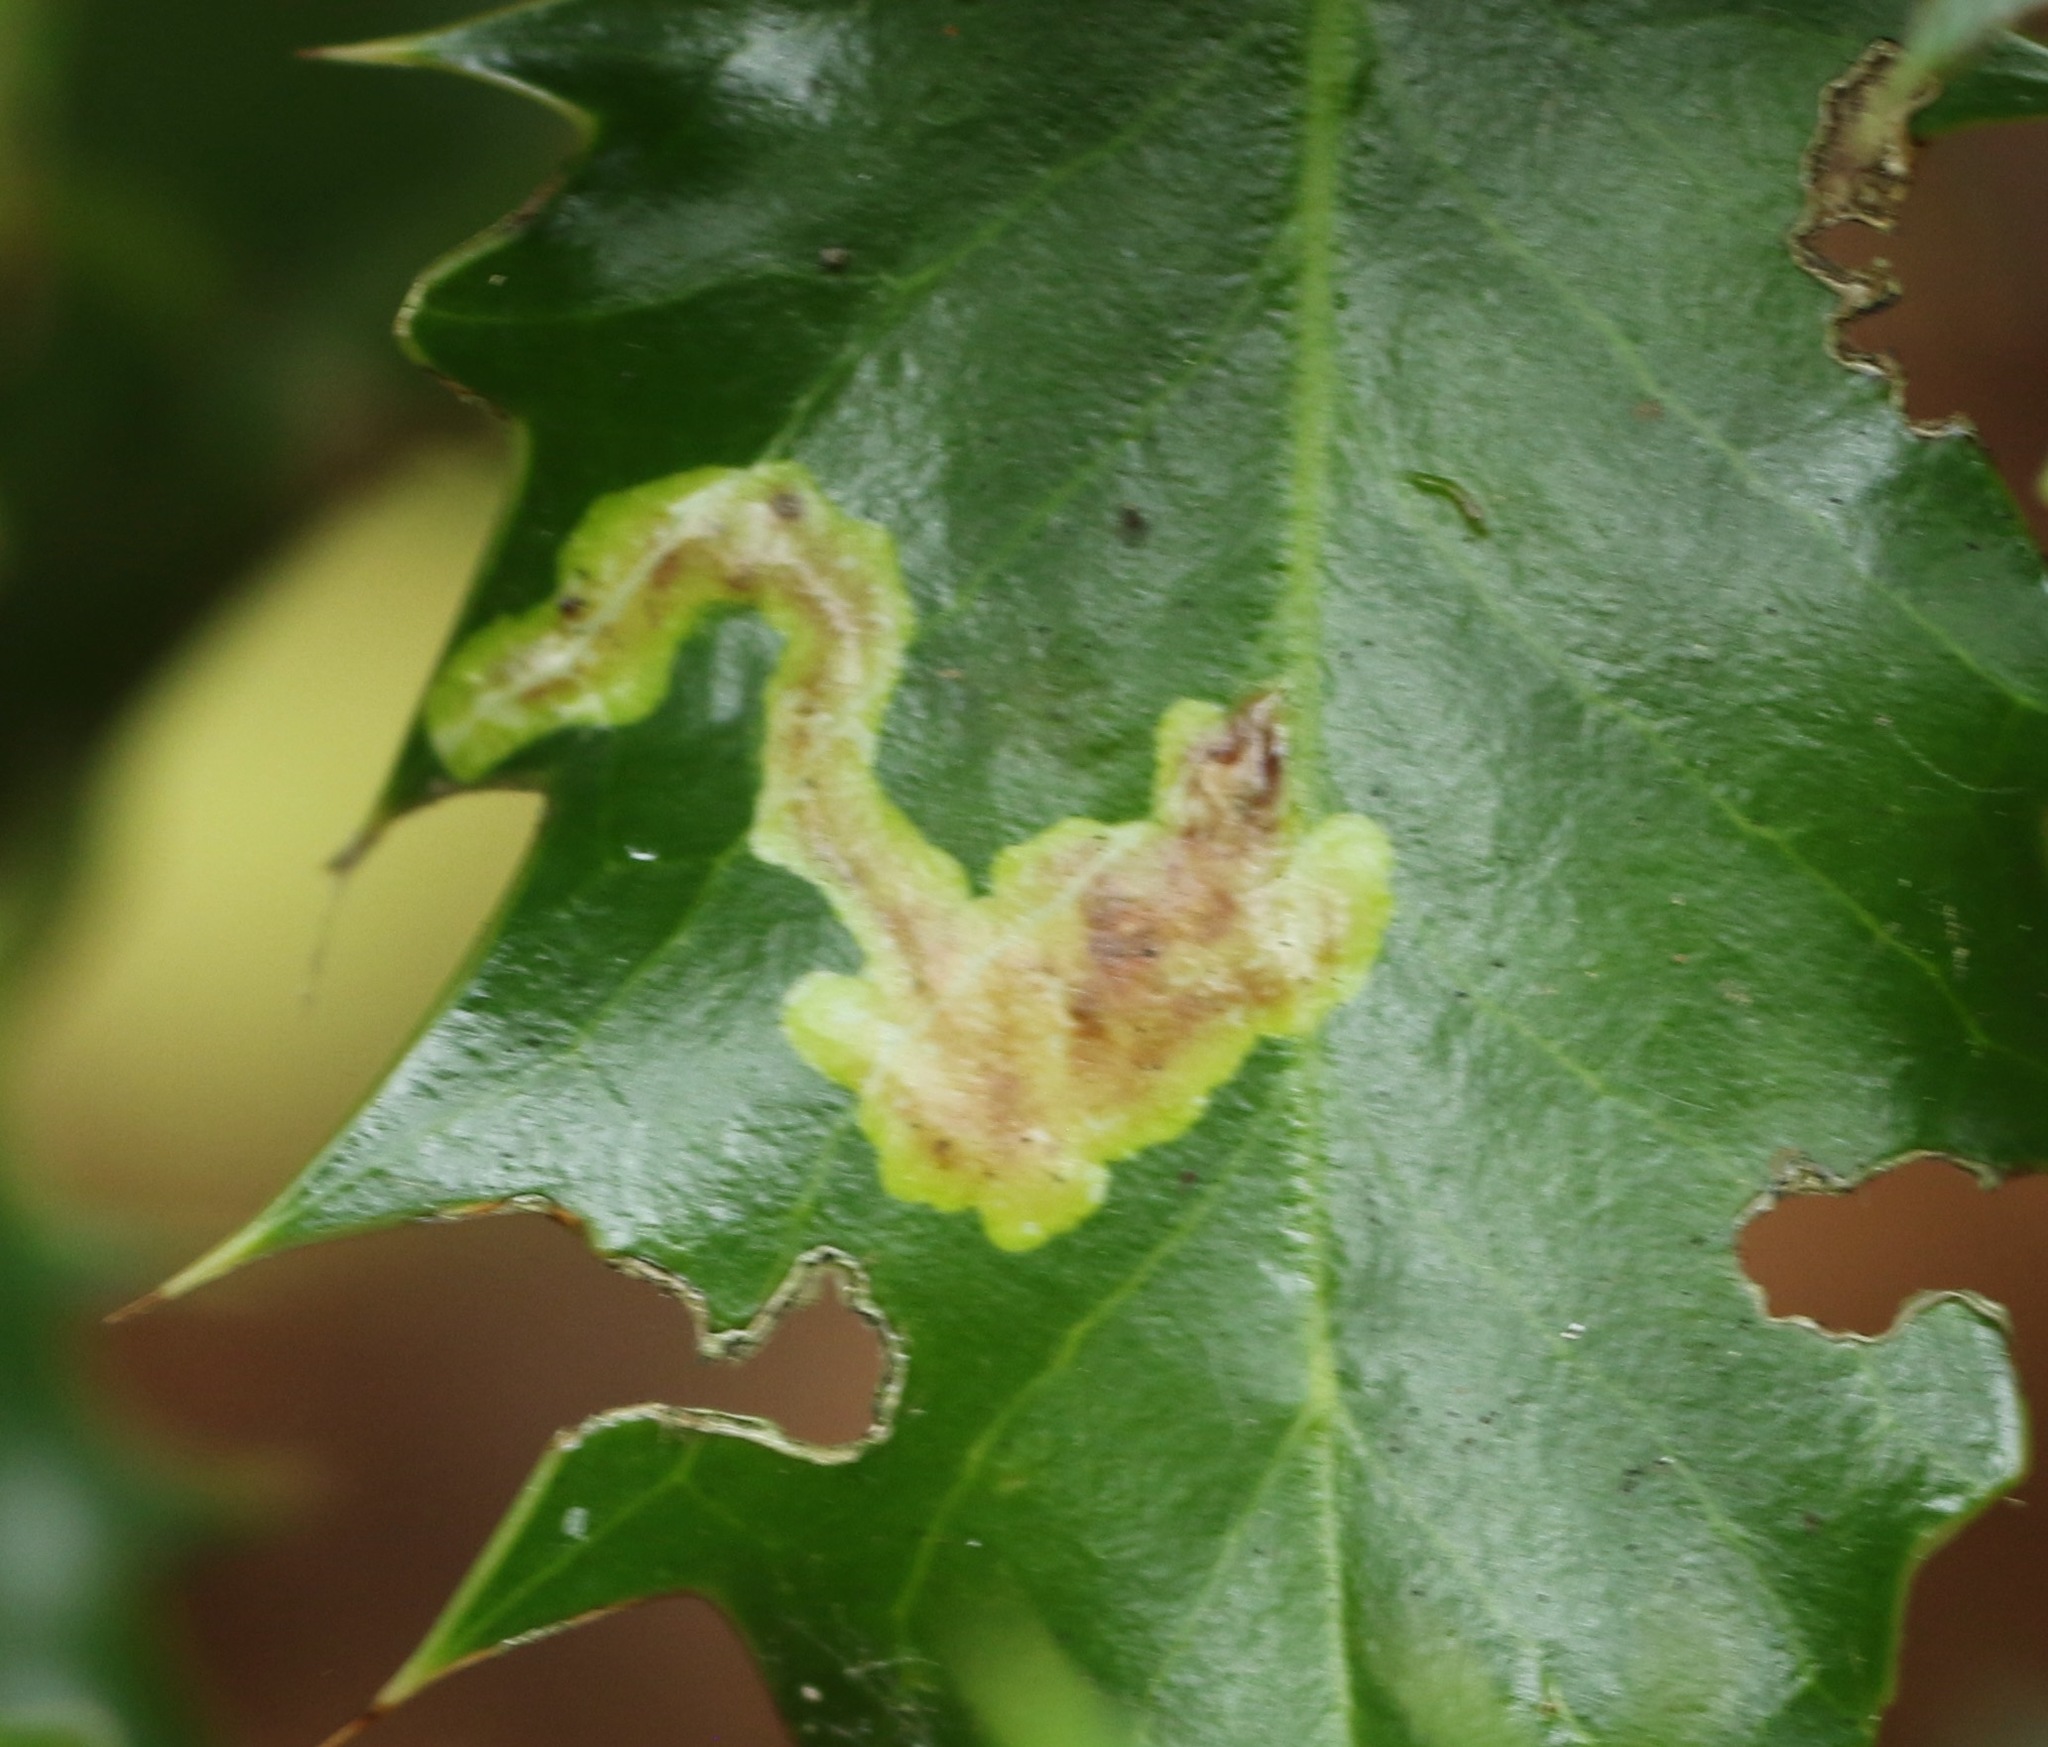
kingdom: Animalia
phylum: Arthropoda
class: Insecta
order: Diptera
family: Agromyzidae
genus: Phytomyza
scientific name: Phytomyza ilicis
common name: Holly leafminer
